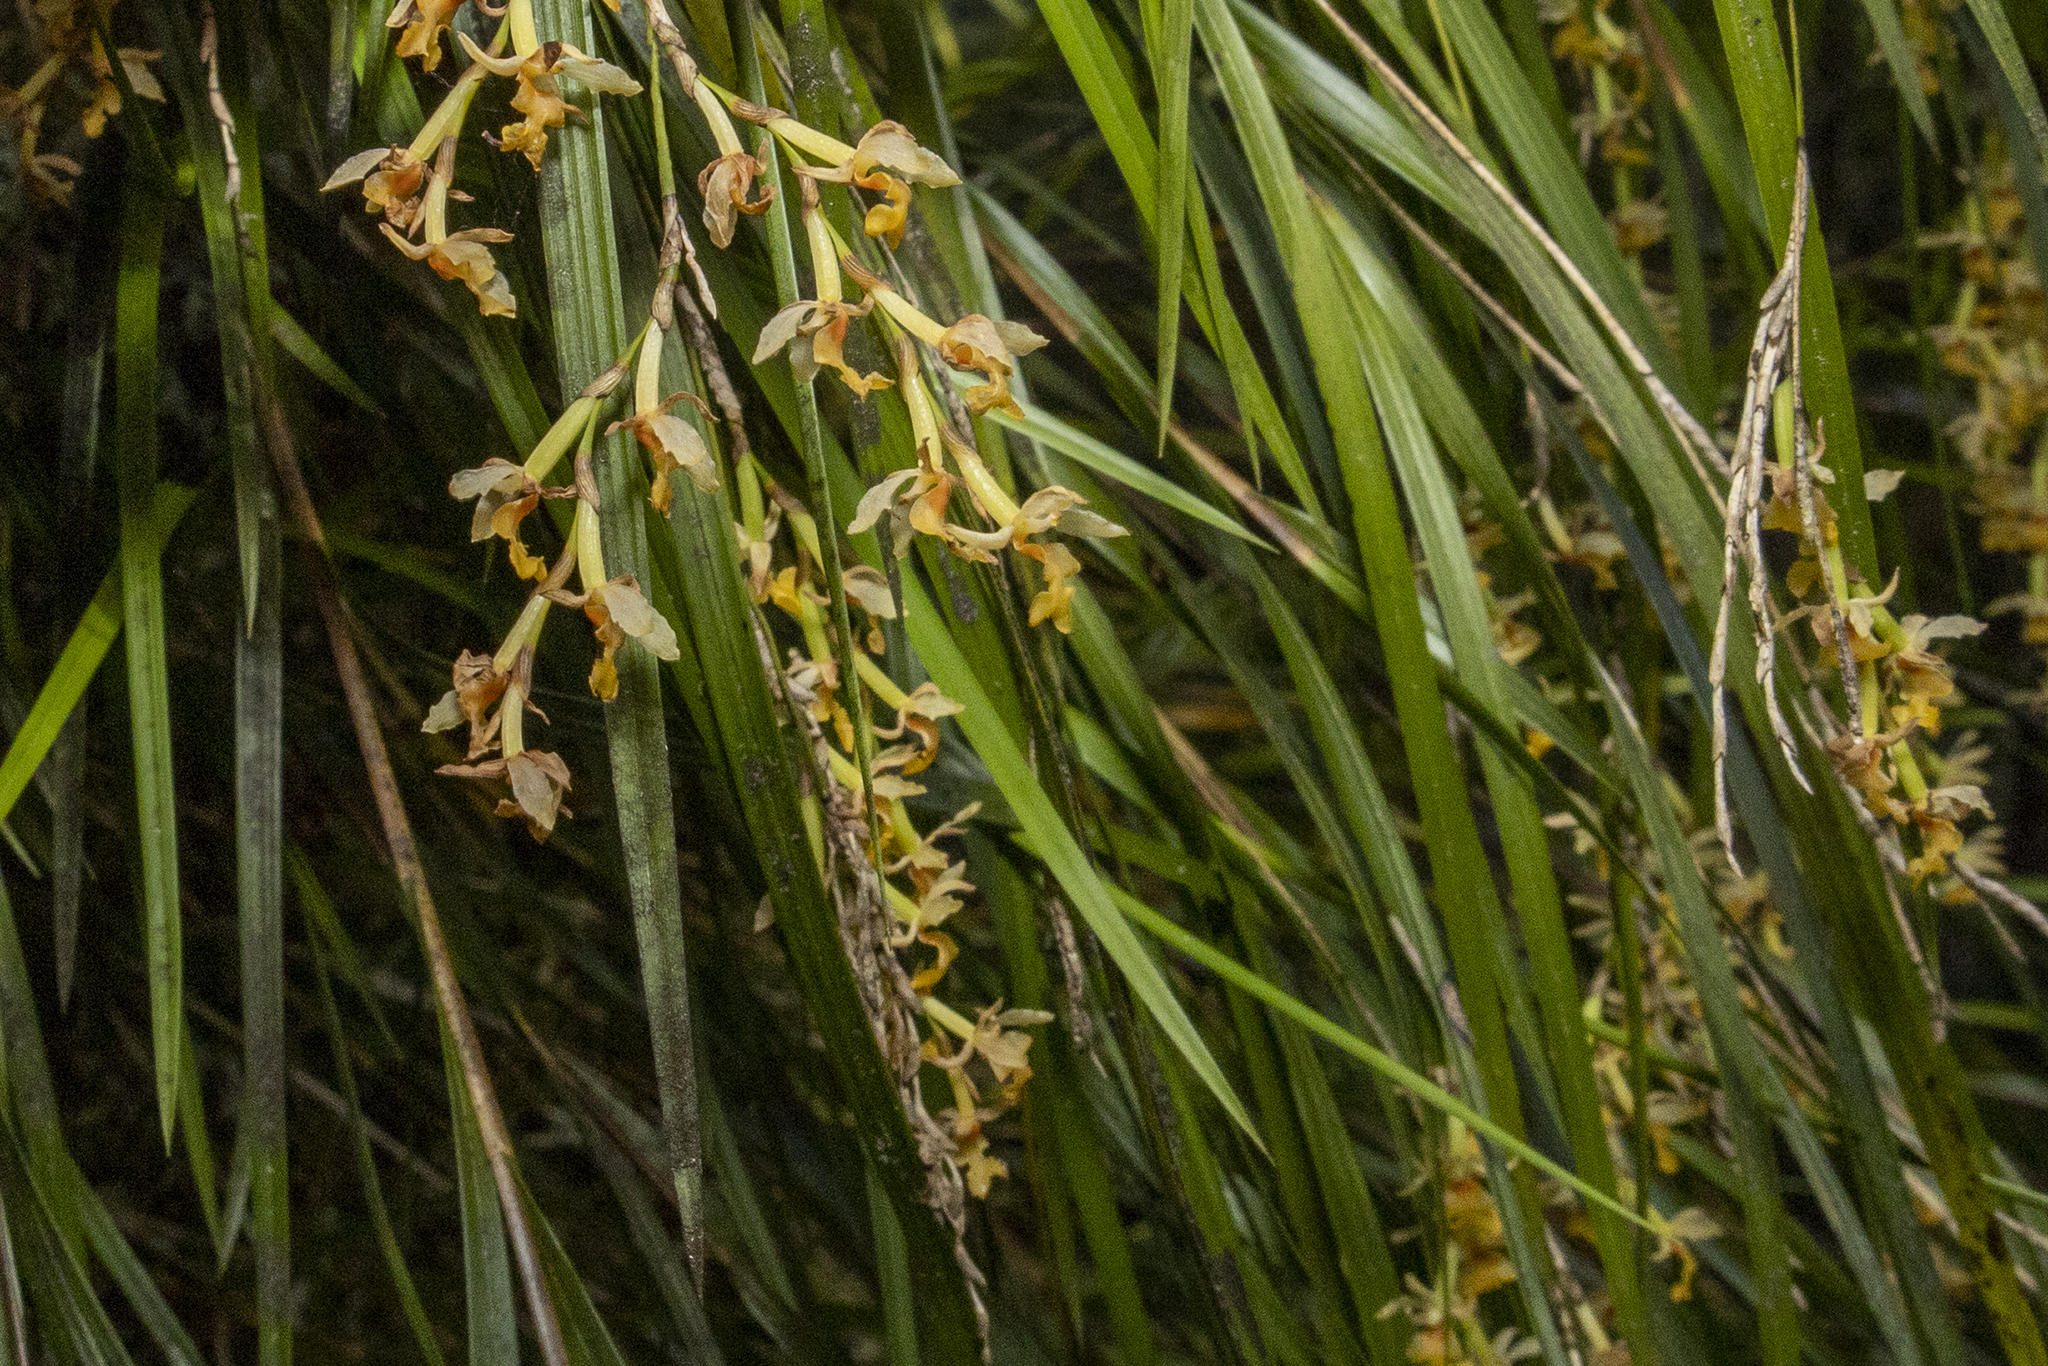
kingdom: Plantae
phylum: Tracheophyta
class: Liliopsida
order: Asparagales
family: Orchidaceae
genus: Earina
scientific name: Earina mucronata
